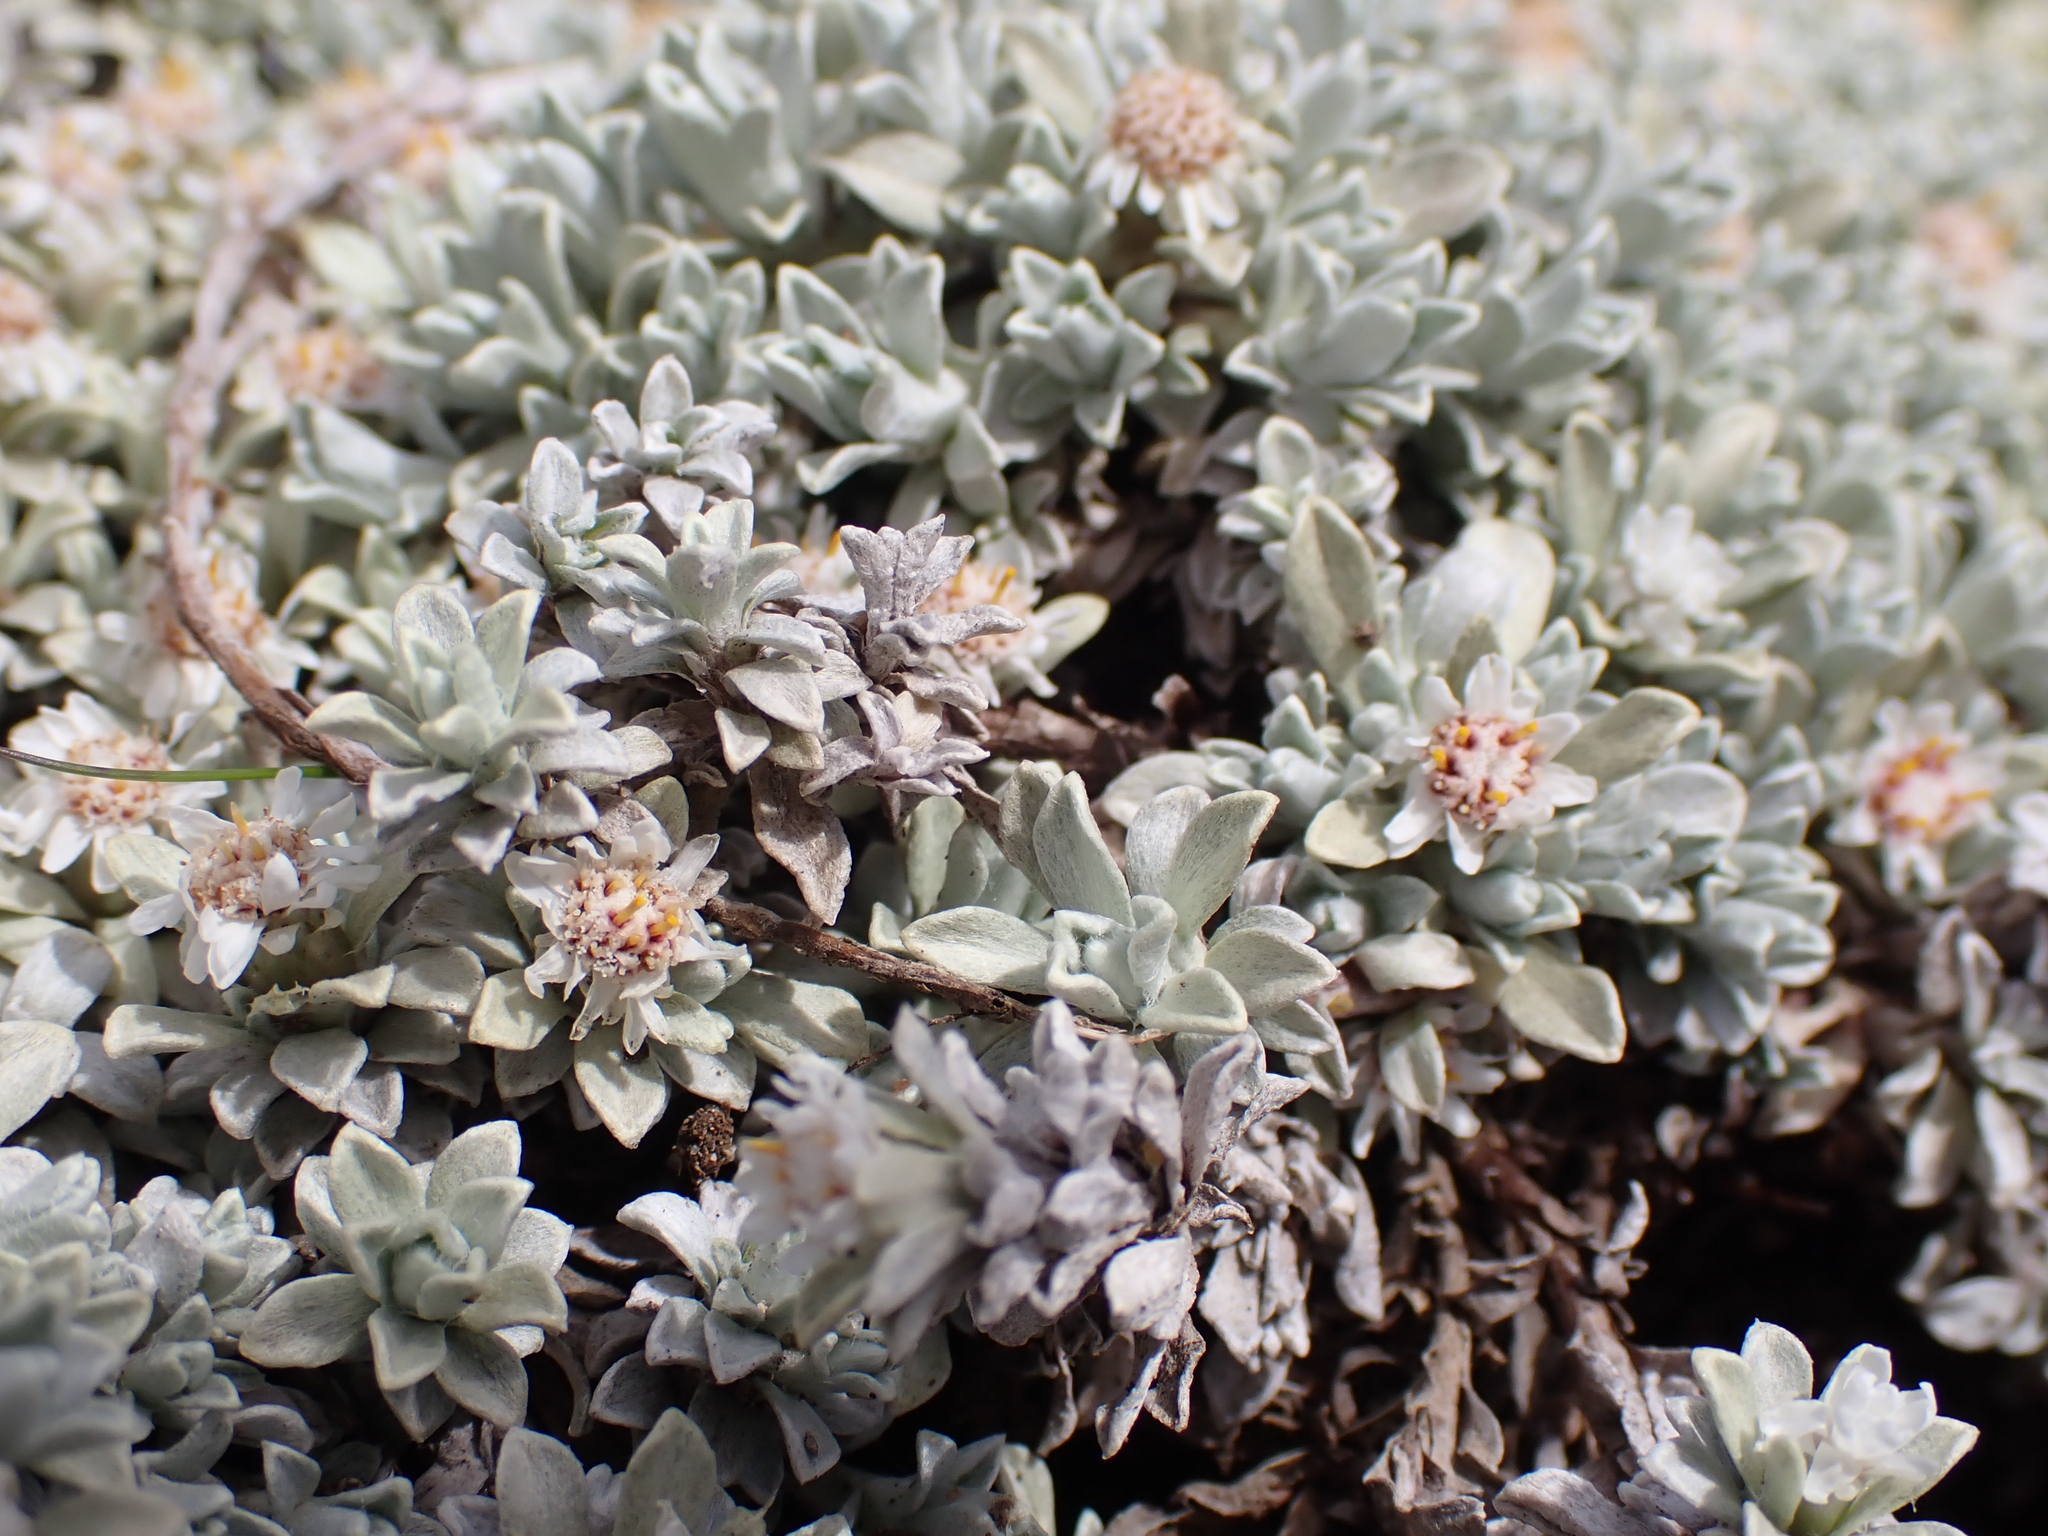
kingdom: Plantae
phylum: Tracheophyta
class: Magnoliopsida
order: Asterales
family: Asteraceae
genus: Ewartia
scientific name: Ewartia nubigena
